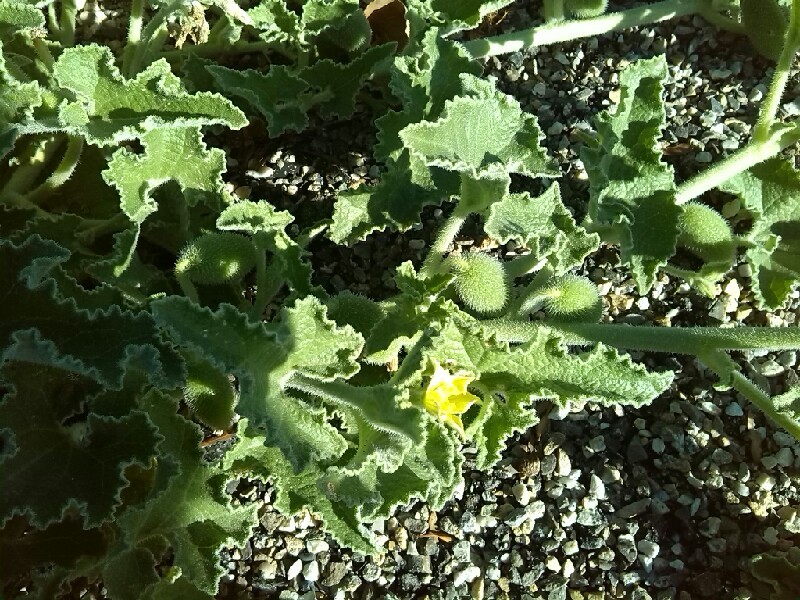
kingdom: Plantae
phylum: Tracheophyta
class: Magnoliopsida
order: Cucurbitales
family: Cucurbitaceae
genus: Ecballium
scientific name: Ecballium elaterium
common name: Squirting cucumber
